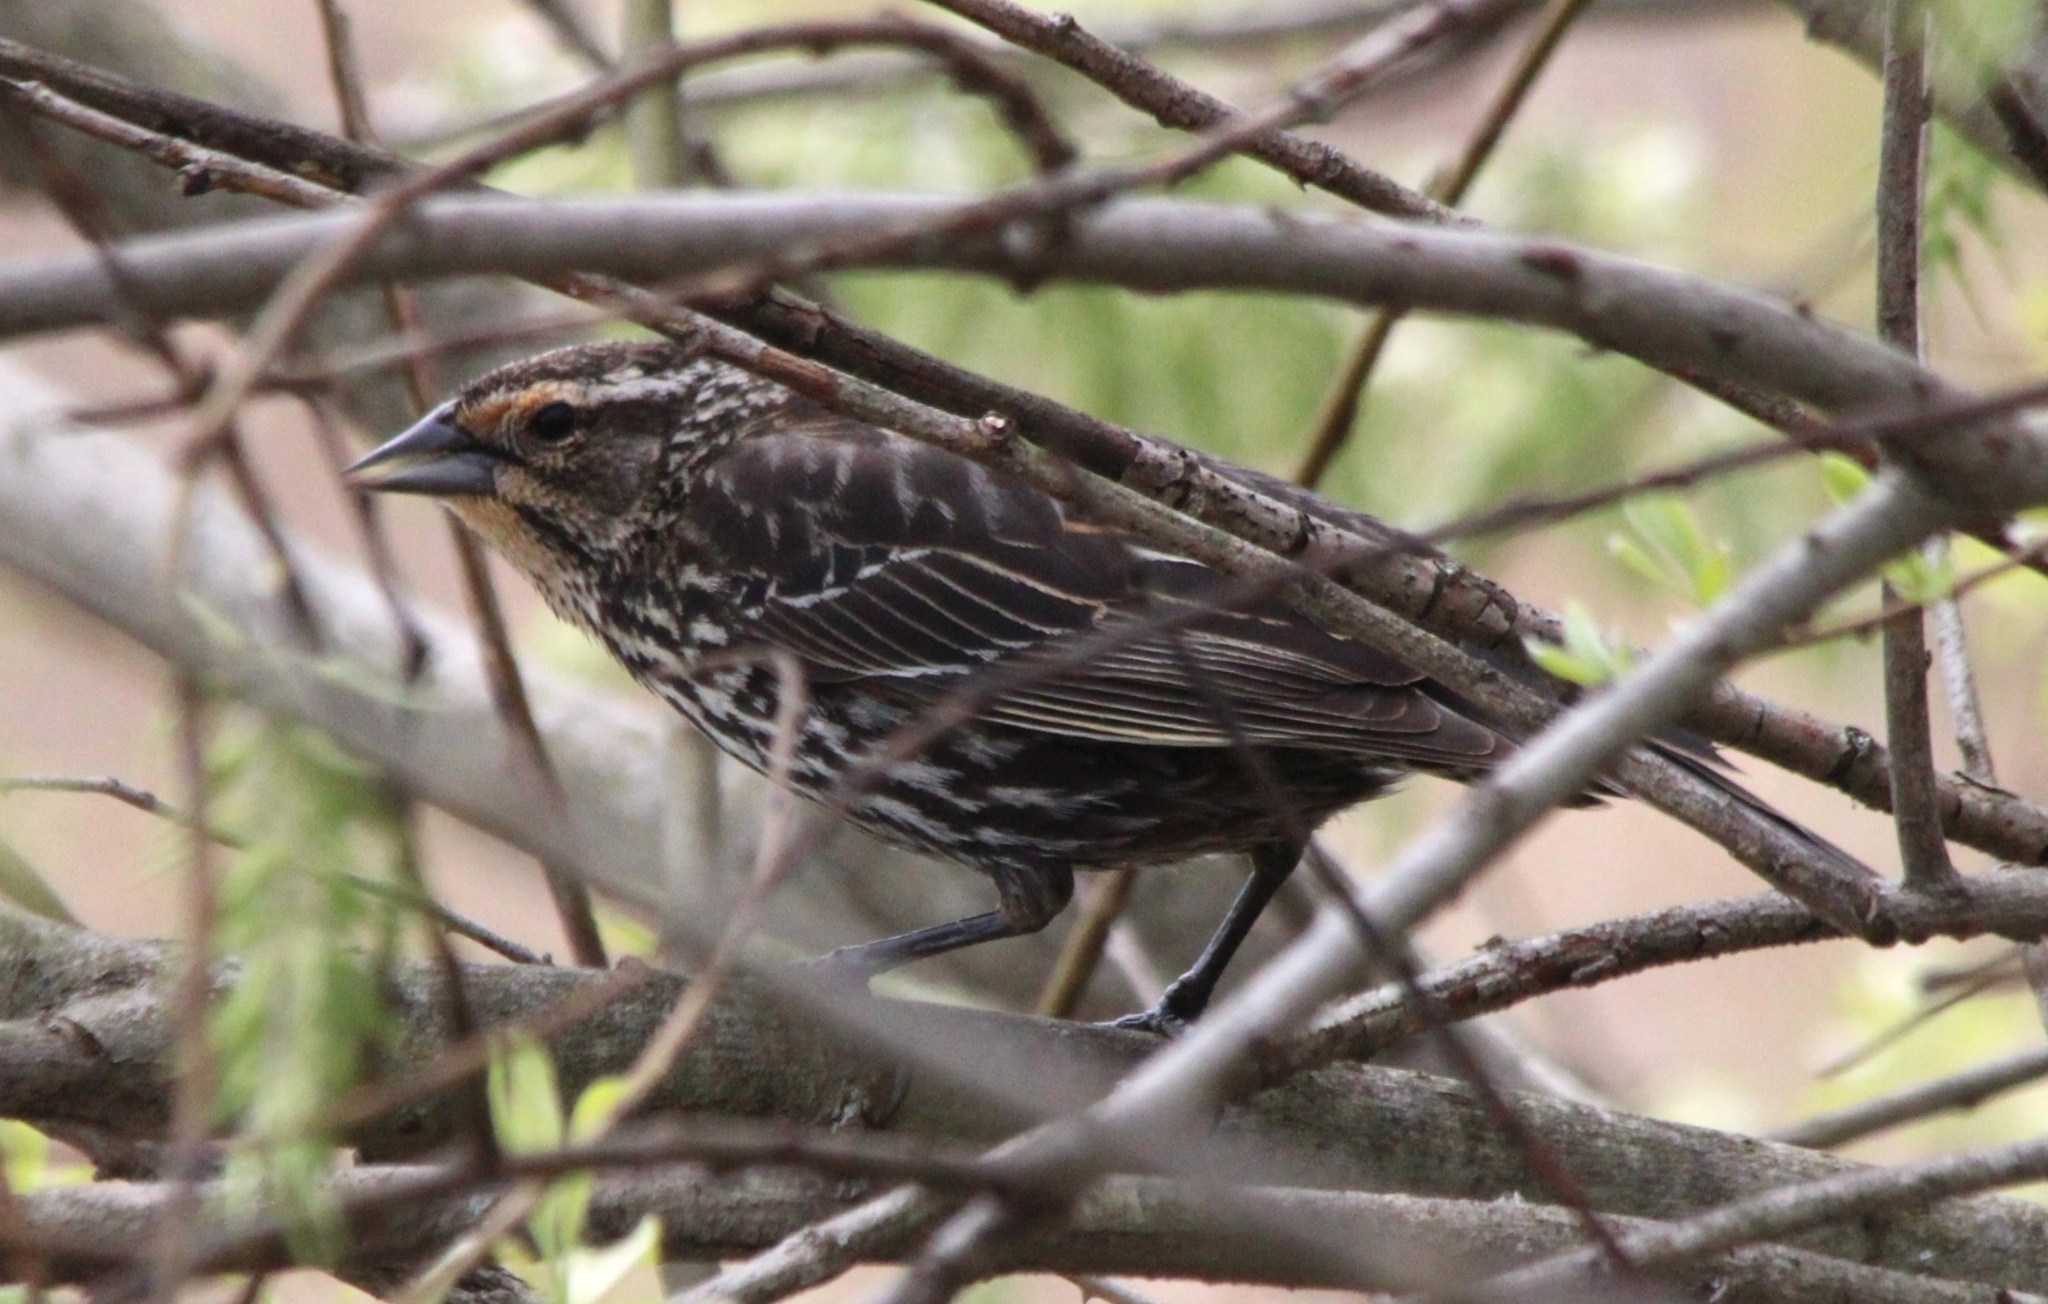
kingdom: Animalia
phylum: Chordata
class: Aves
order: Passeriformes
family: Icteridae
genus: Agelaius
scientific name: Agelaius phoeniceus
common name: Red-winged blackbird
